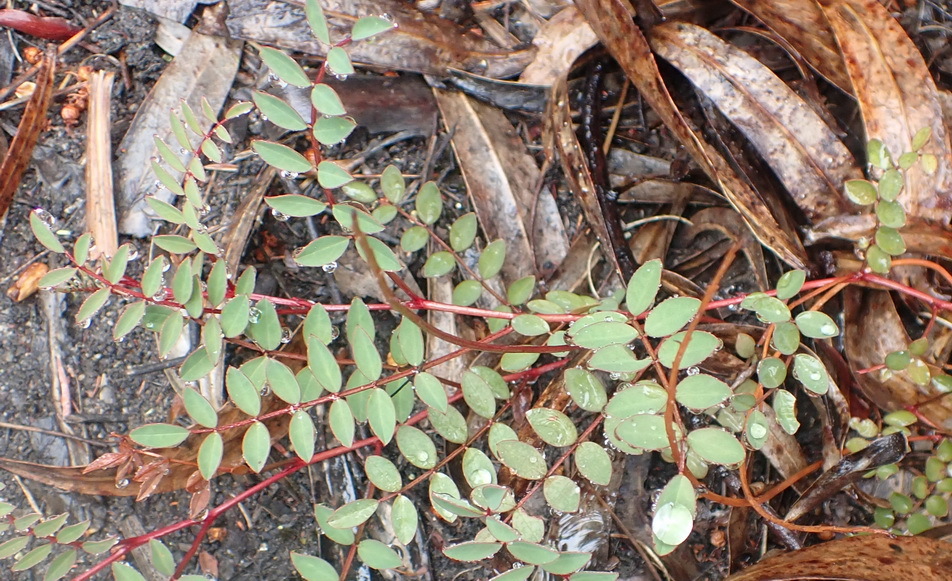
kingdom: Plantae
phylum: Tracheophyta
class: Magnoliopsida
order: Fabales
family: Fabaceae
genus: Indigofera
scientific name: Indigofera
